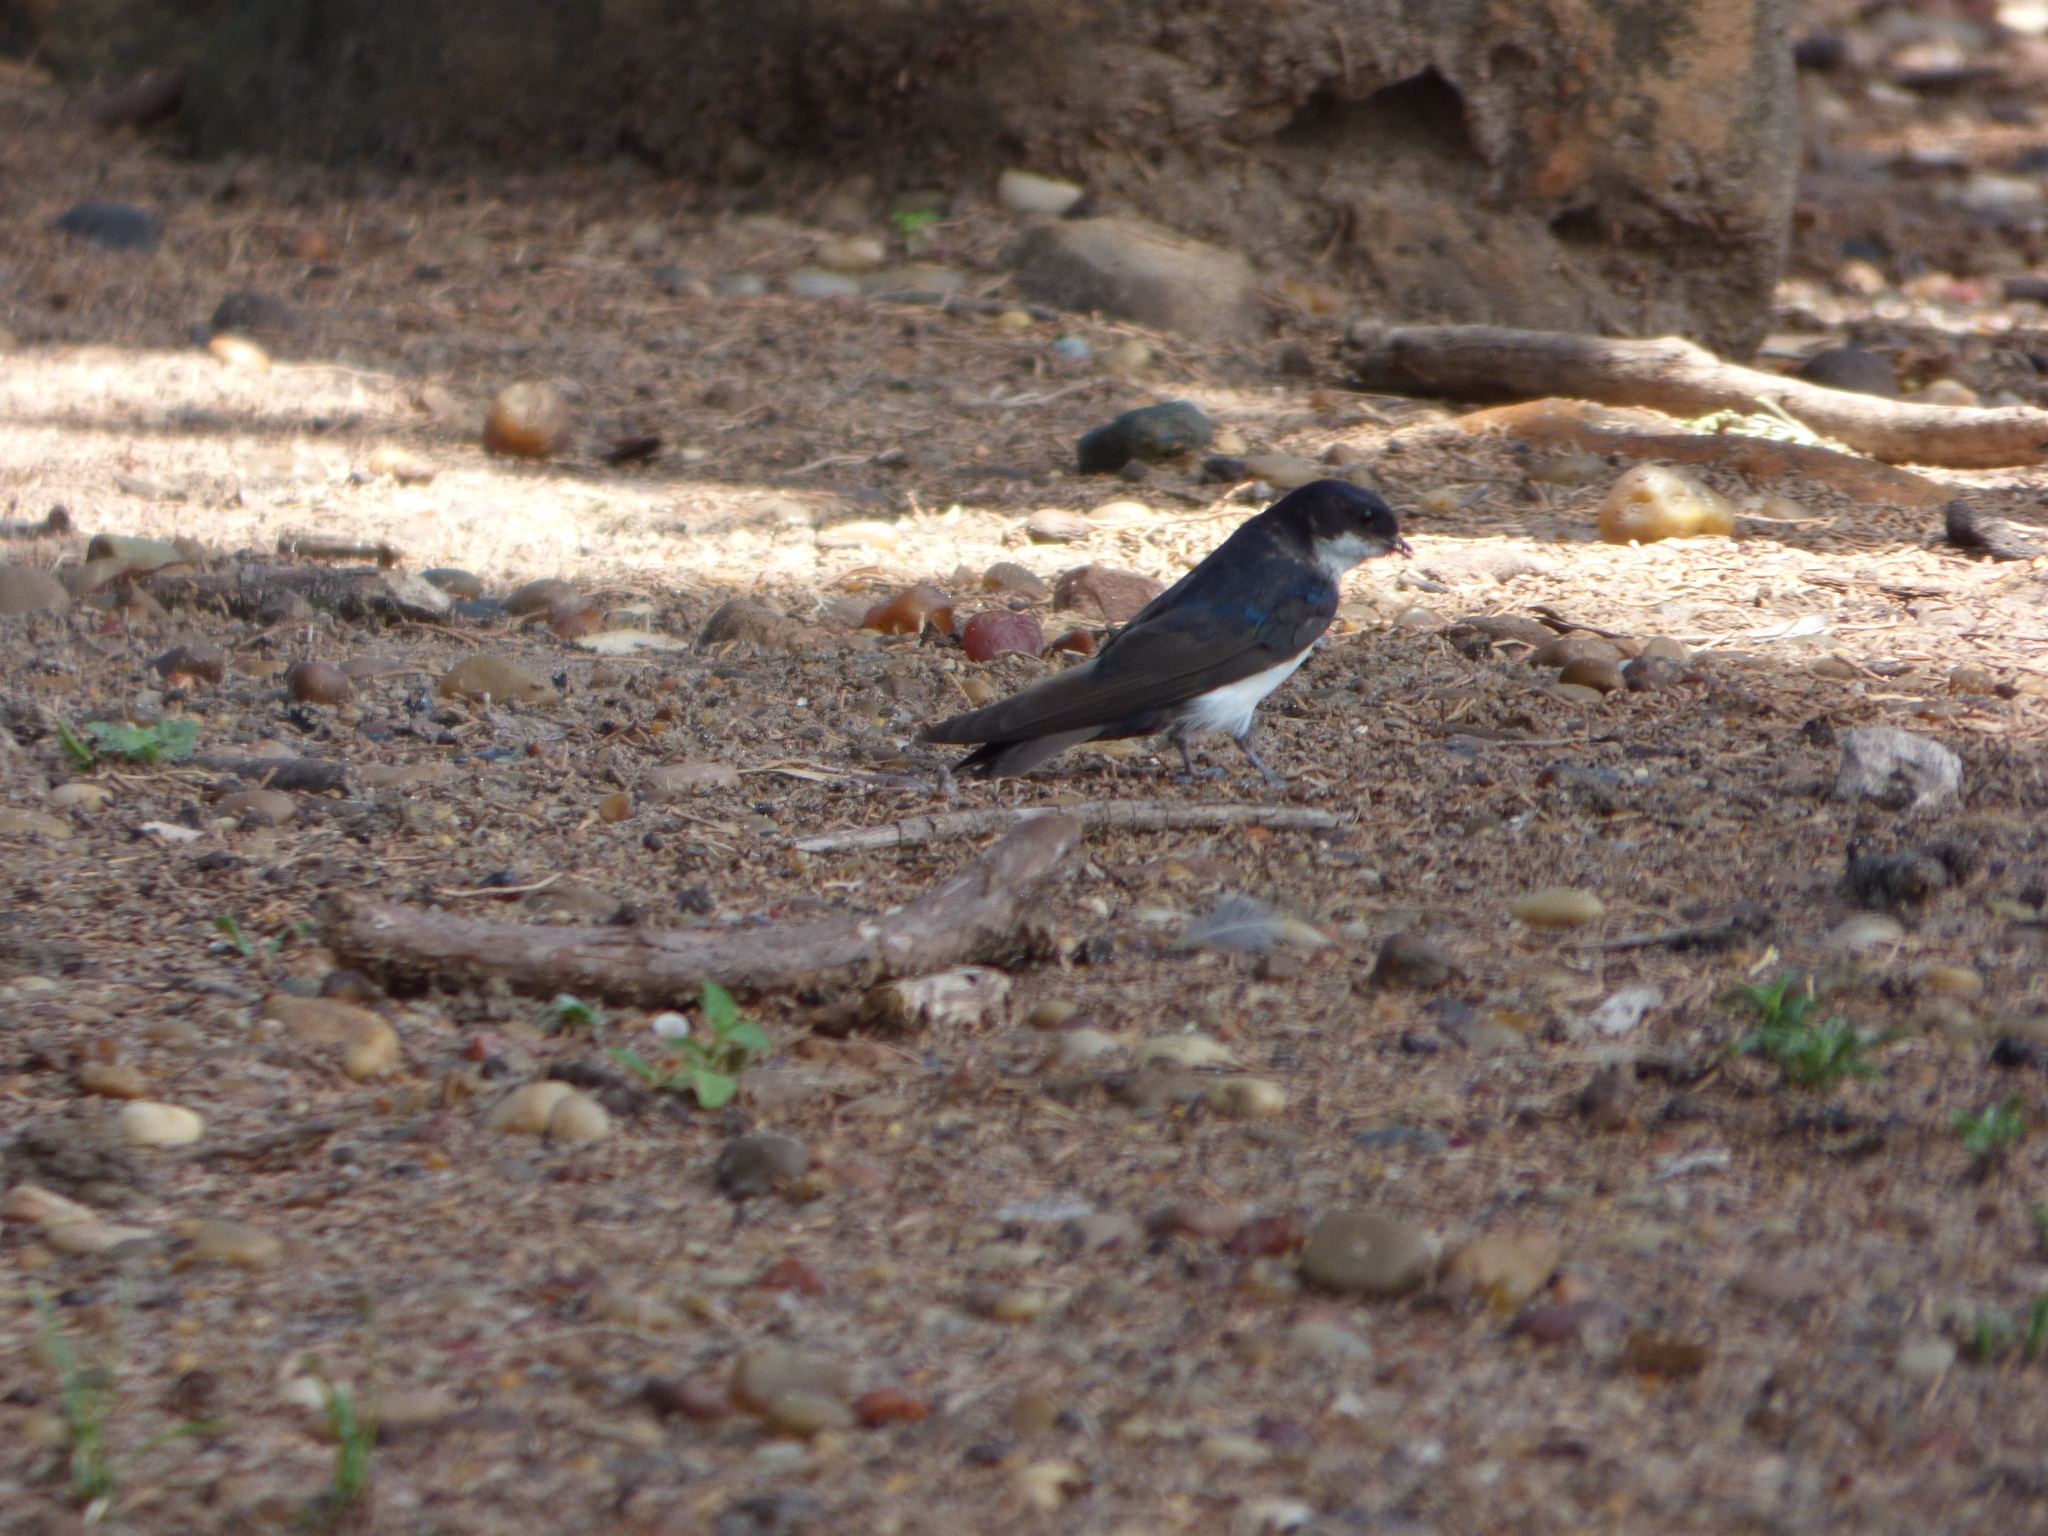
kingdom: Animalia
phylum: Chordata
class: Aves
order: Passeriformes
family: Hirundinidae
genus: Notiochelidon
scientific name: Notiochelidon cyanoleuca
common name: Blue-and-white swallow
